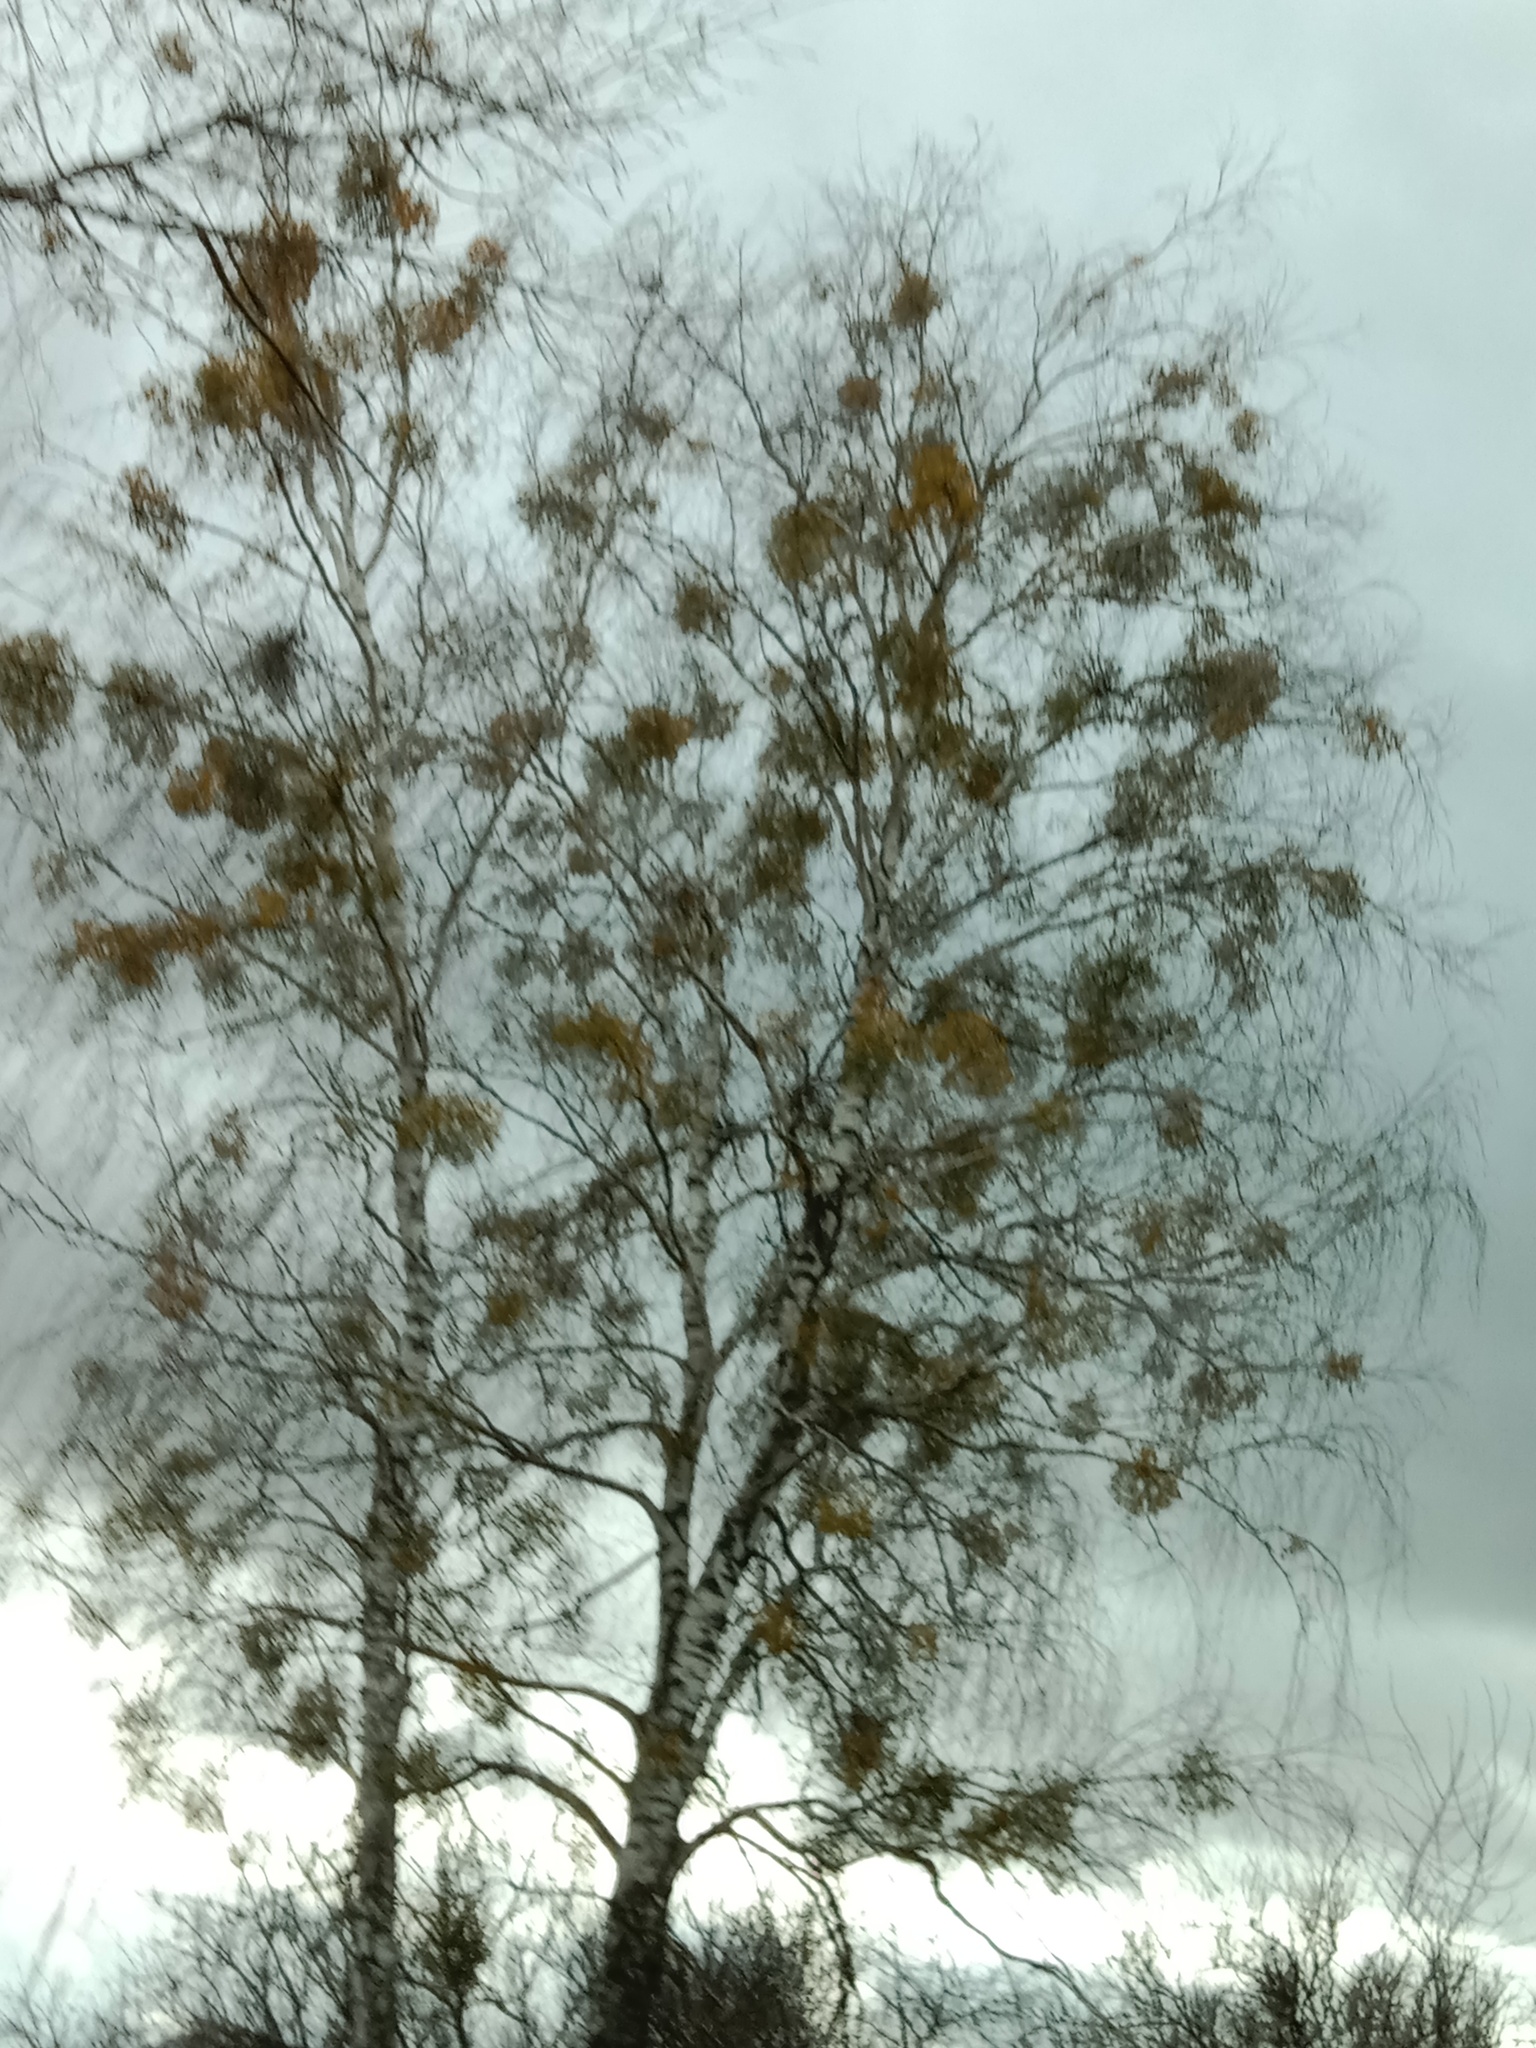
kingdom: Plantae
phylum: Tracheophyta
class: Magnoliopsida
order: Santalales
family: Viscaceae
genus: Viscum
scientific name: Viscum album
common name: Mistletoe
